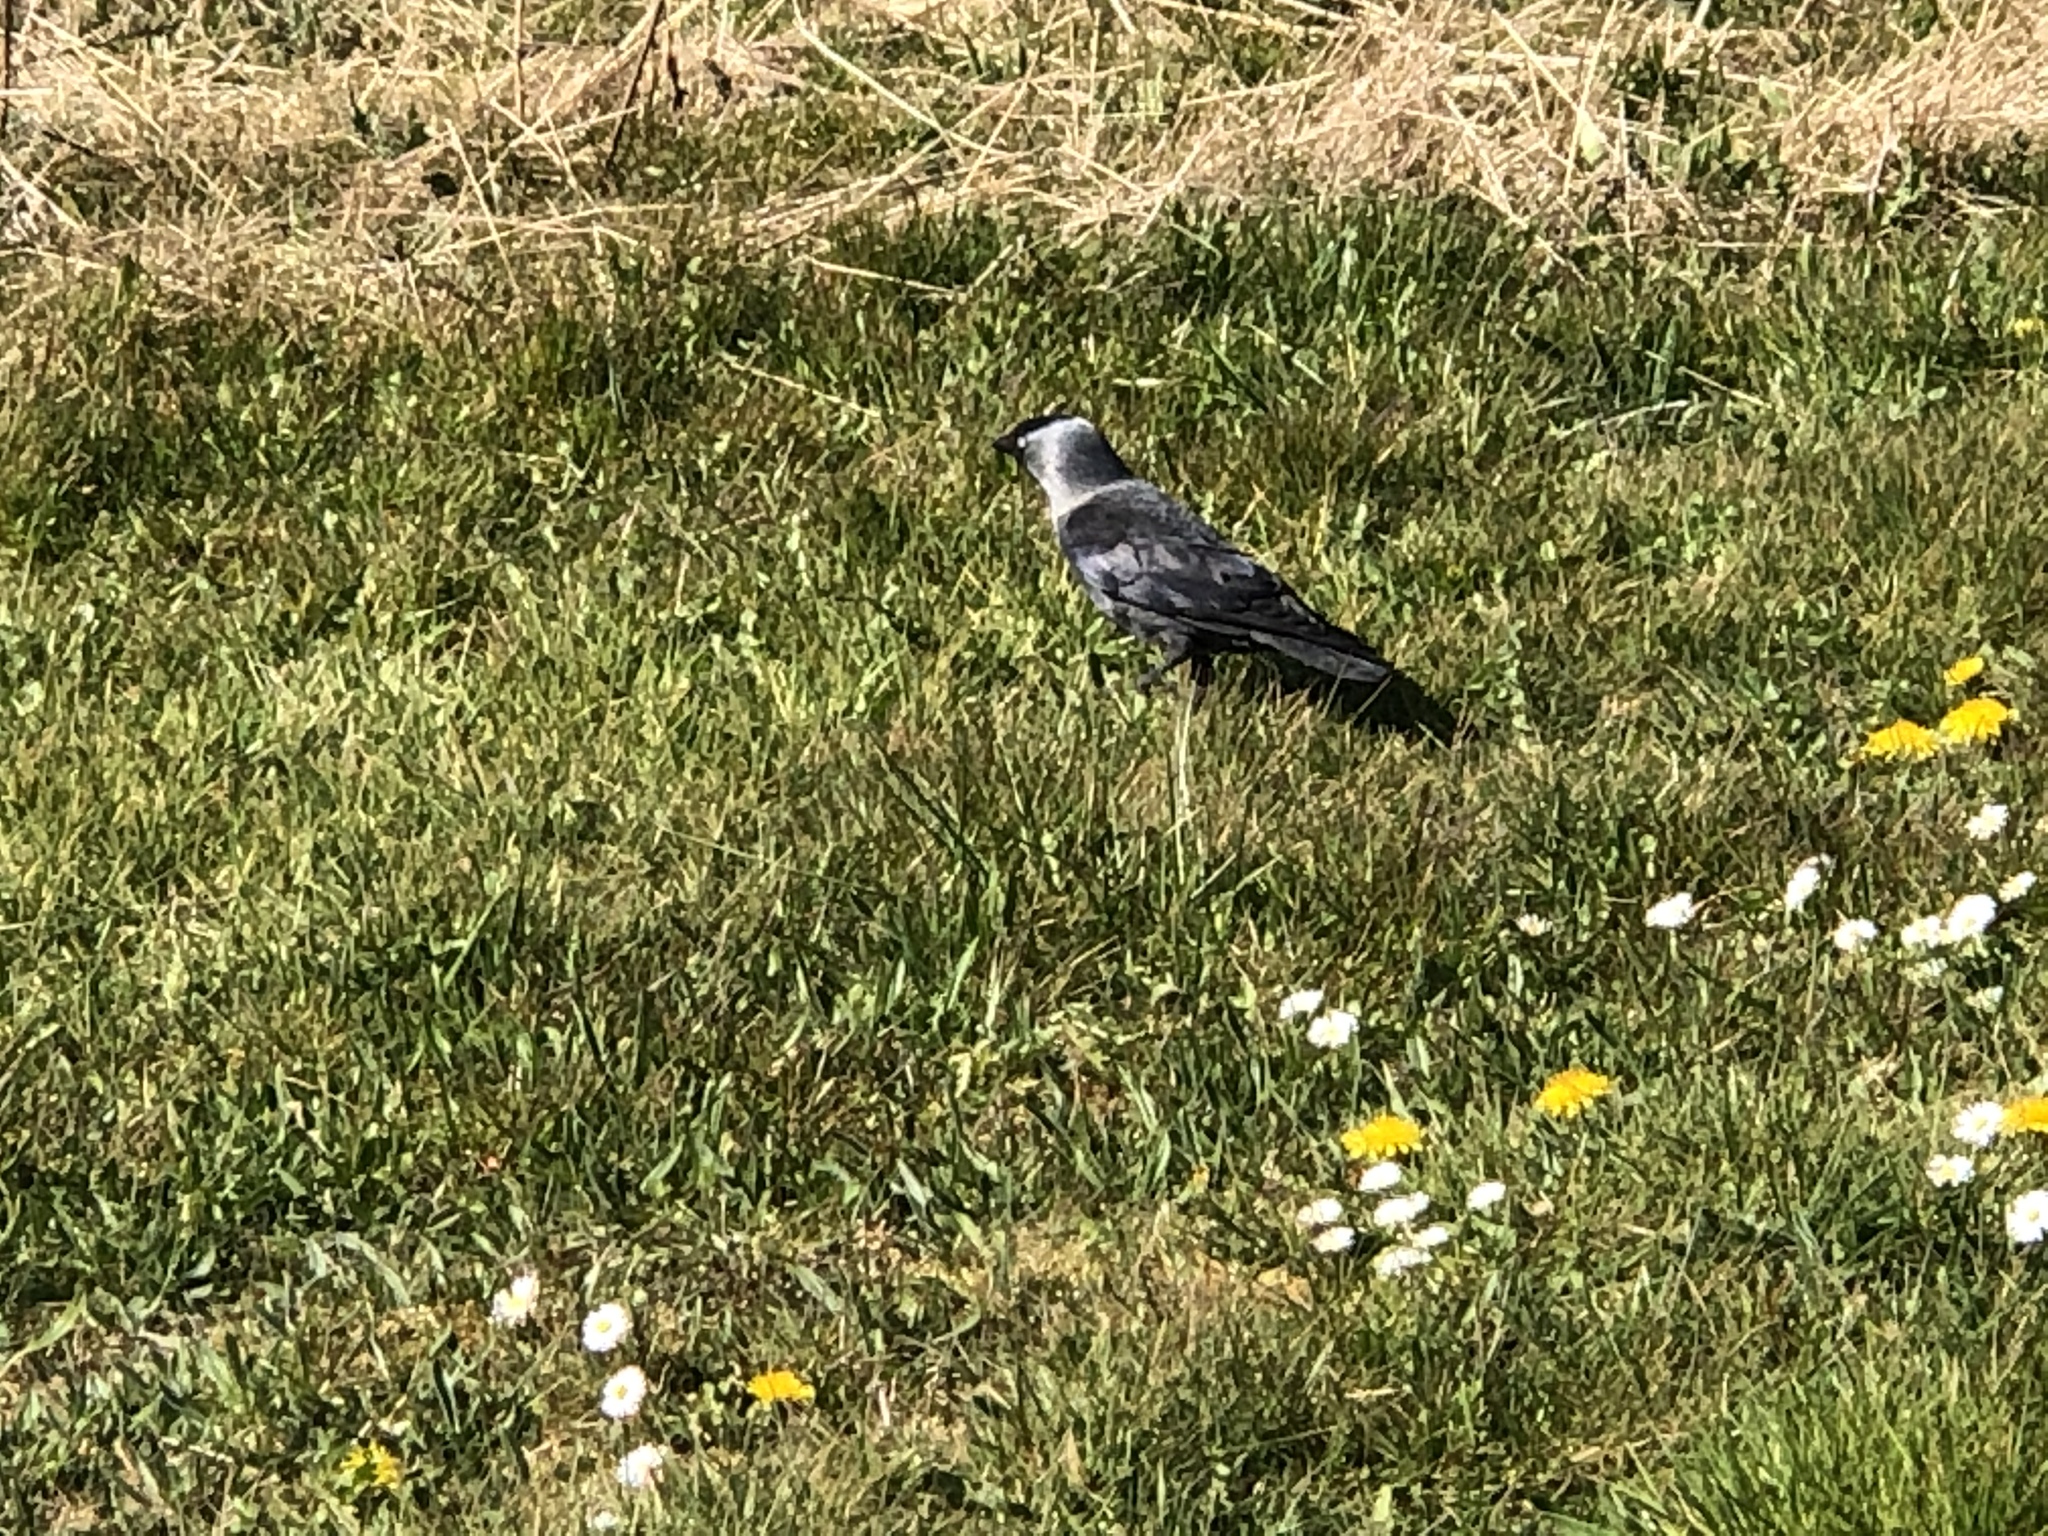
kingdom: Animalia
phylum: Chordata
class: Aves
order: Passeriformes
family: Corvidae
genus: Coloeus
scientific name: Coloeus monedula
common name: Western jackdaw
